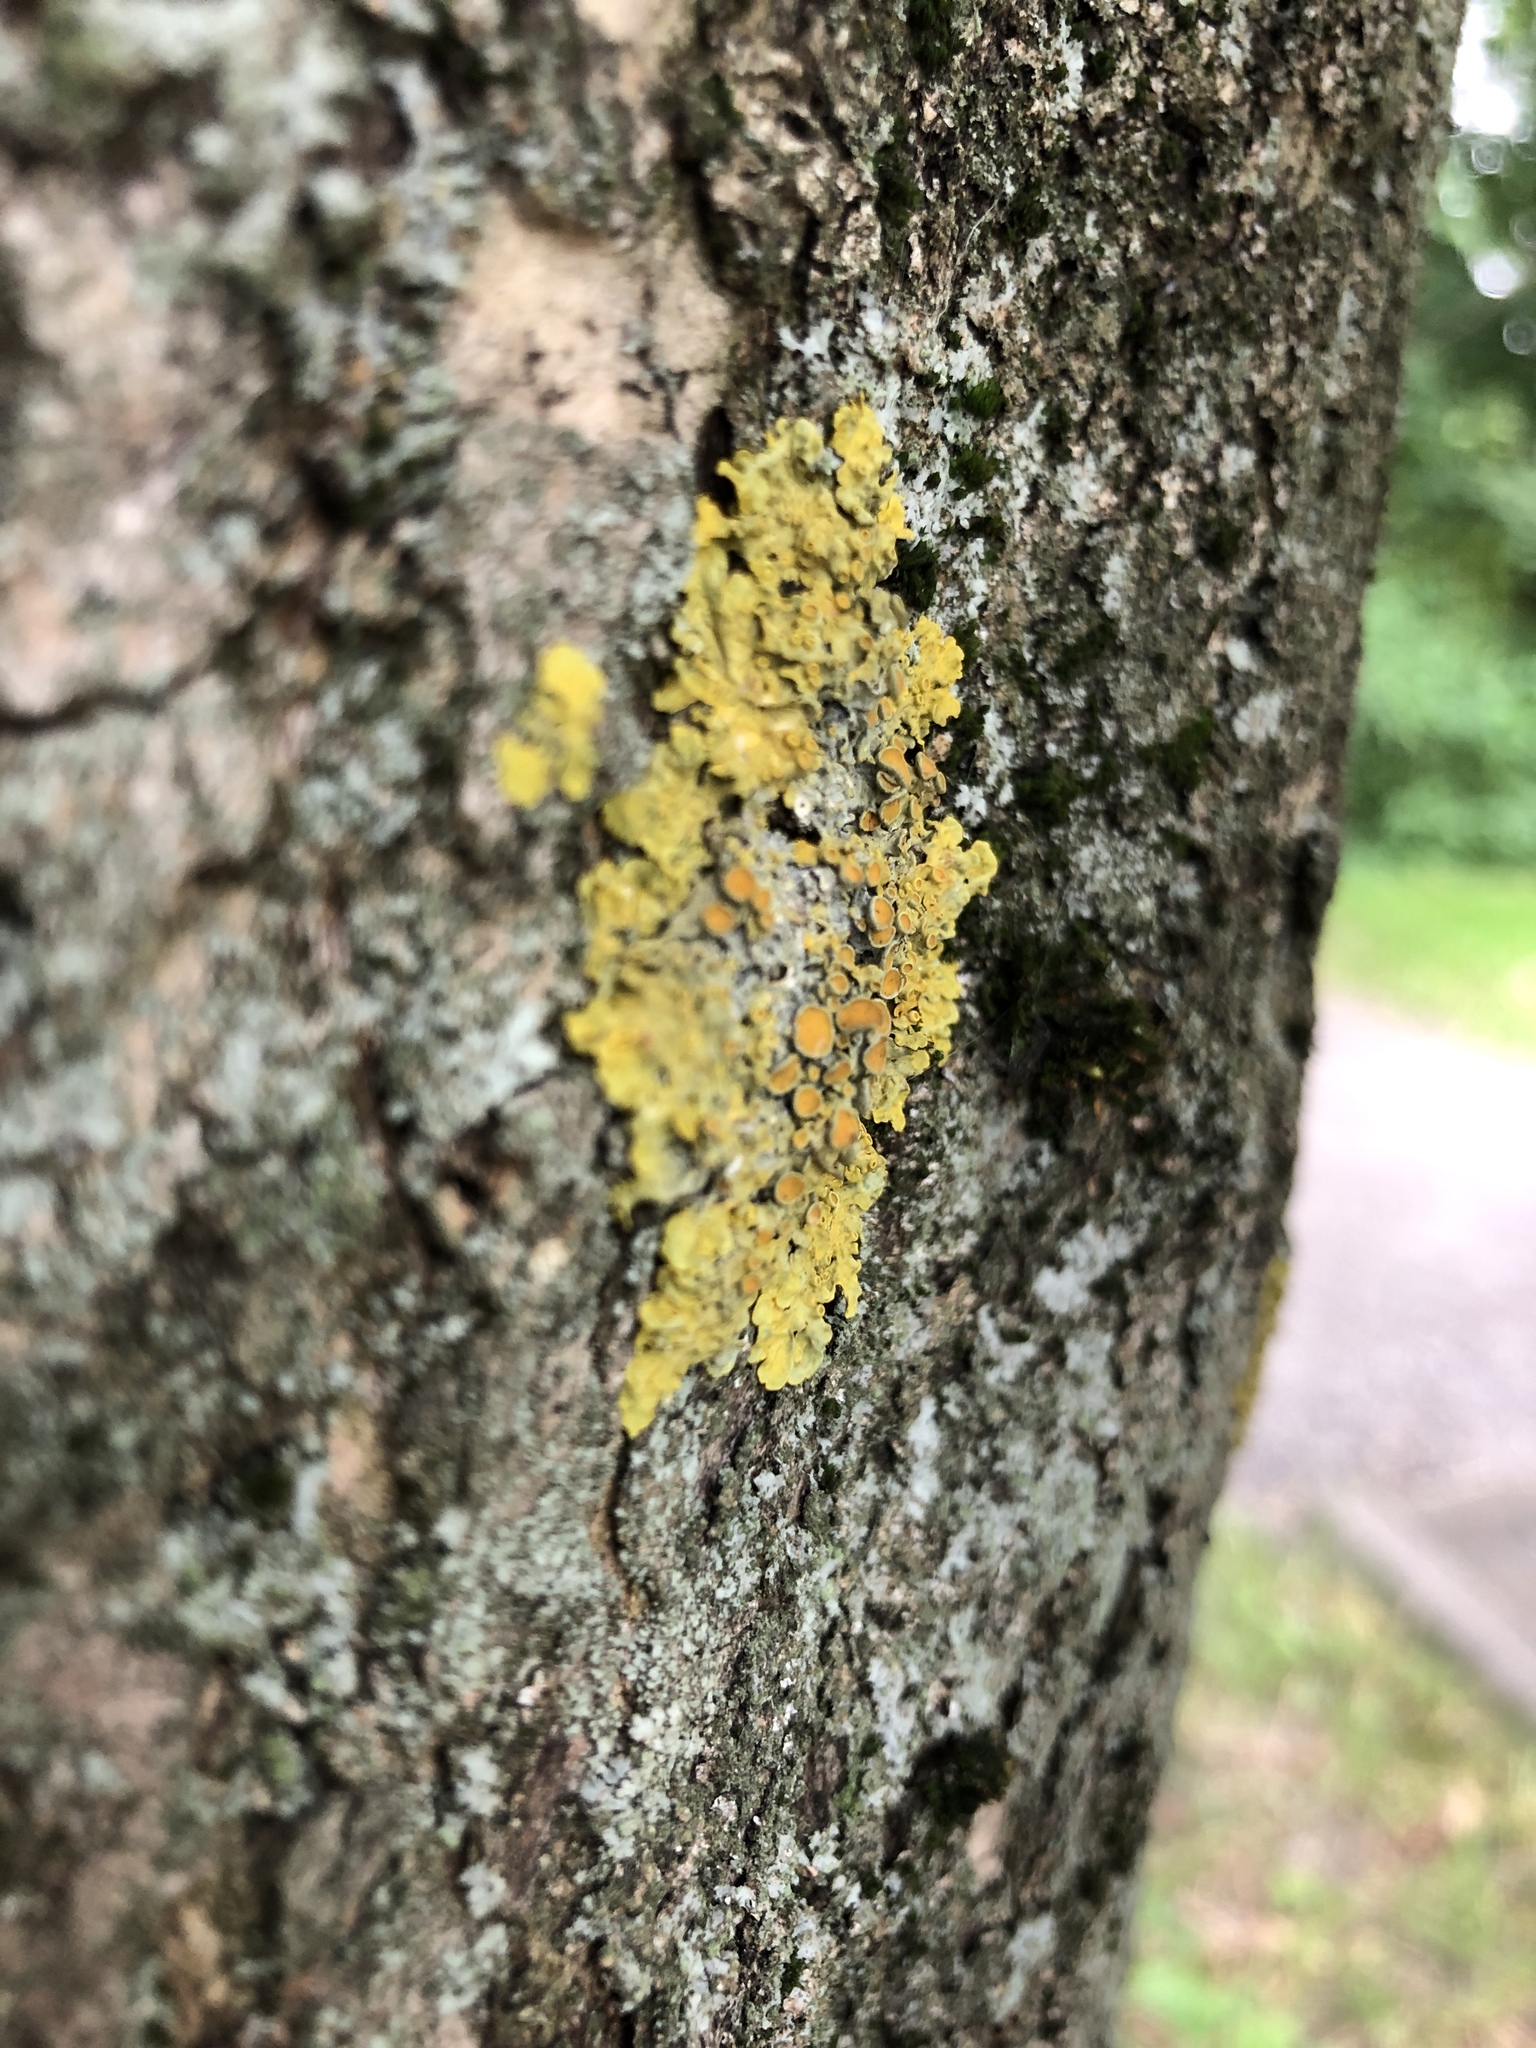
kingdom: Fungi
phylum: Ascomycota
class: Lecanoromycetes
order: Teloschistales
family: Teloschistaceae
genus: Xanthoria
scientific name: Xanthoria parietina
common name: Common orange lichen
